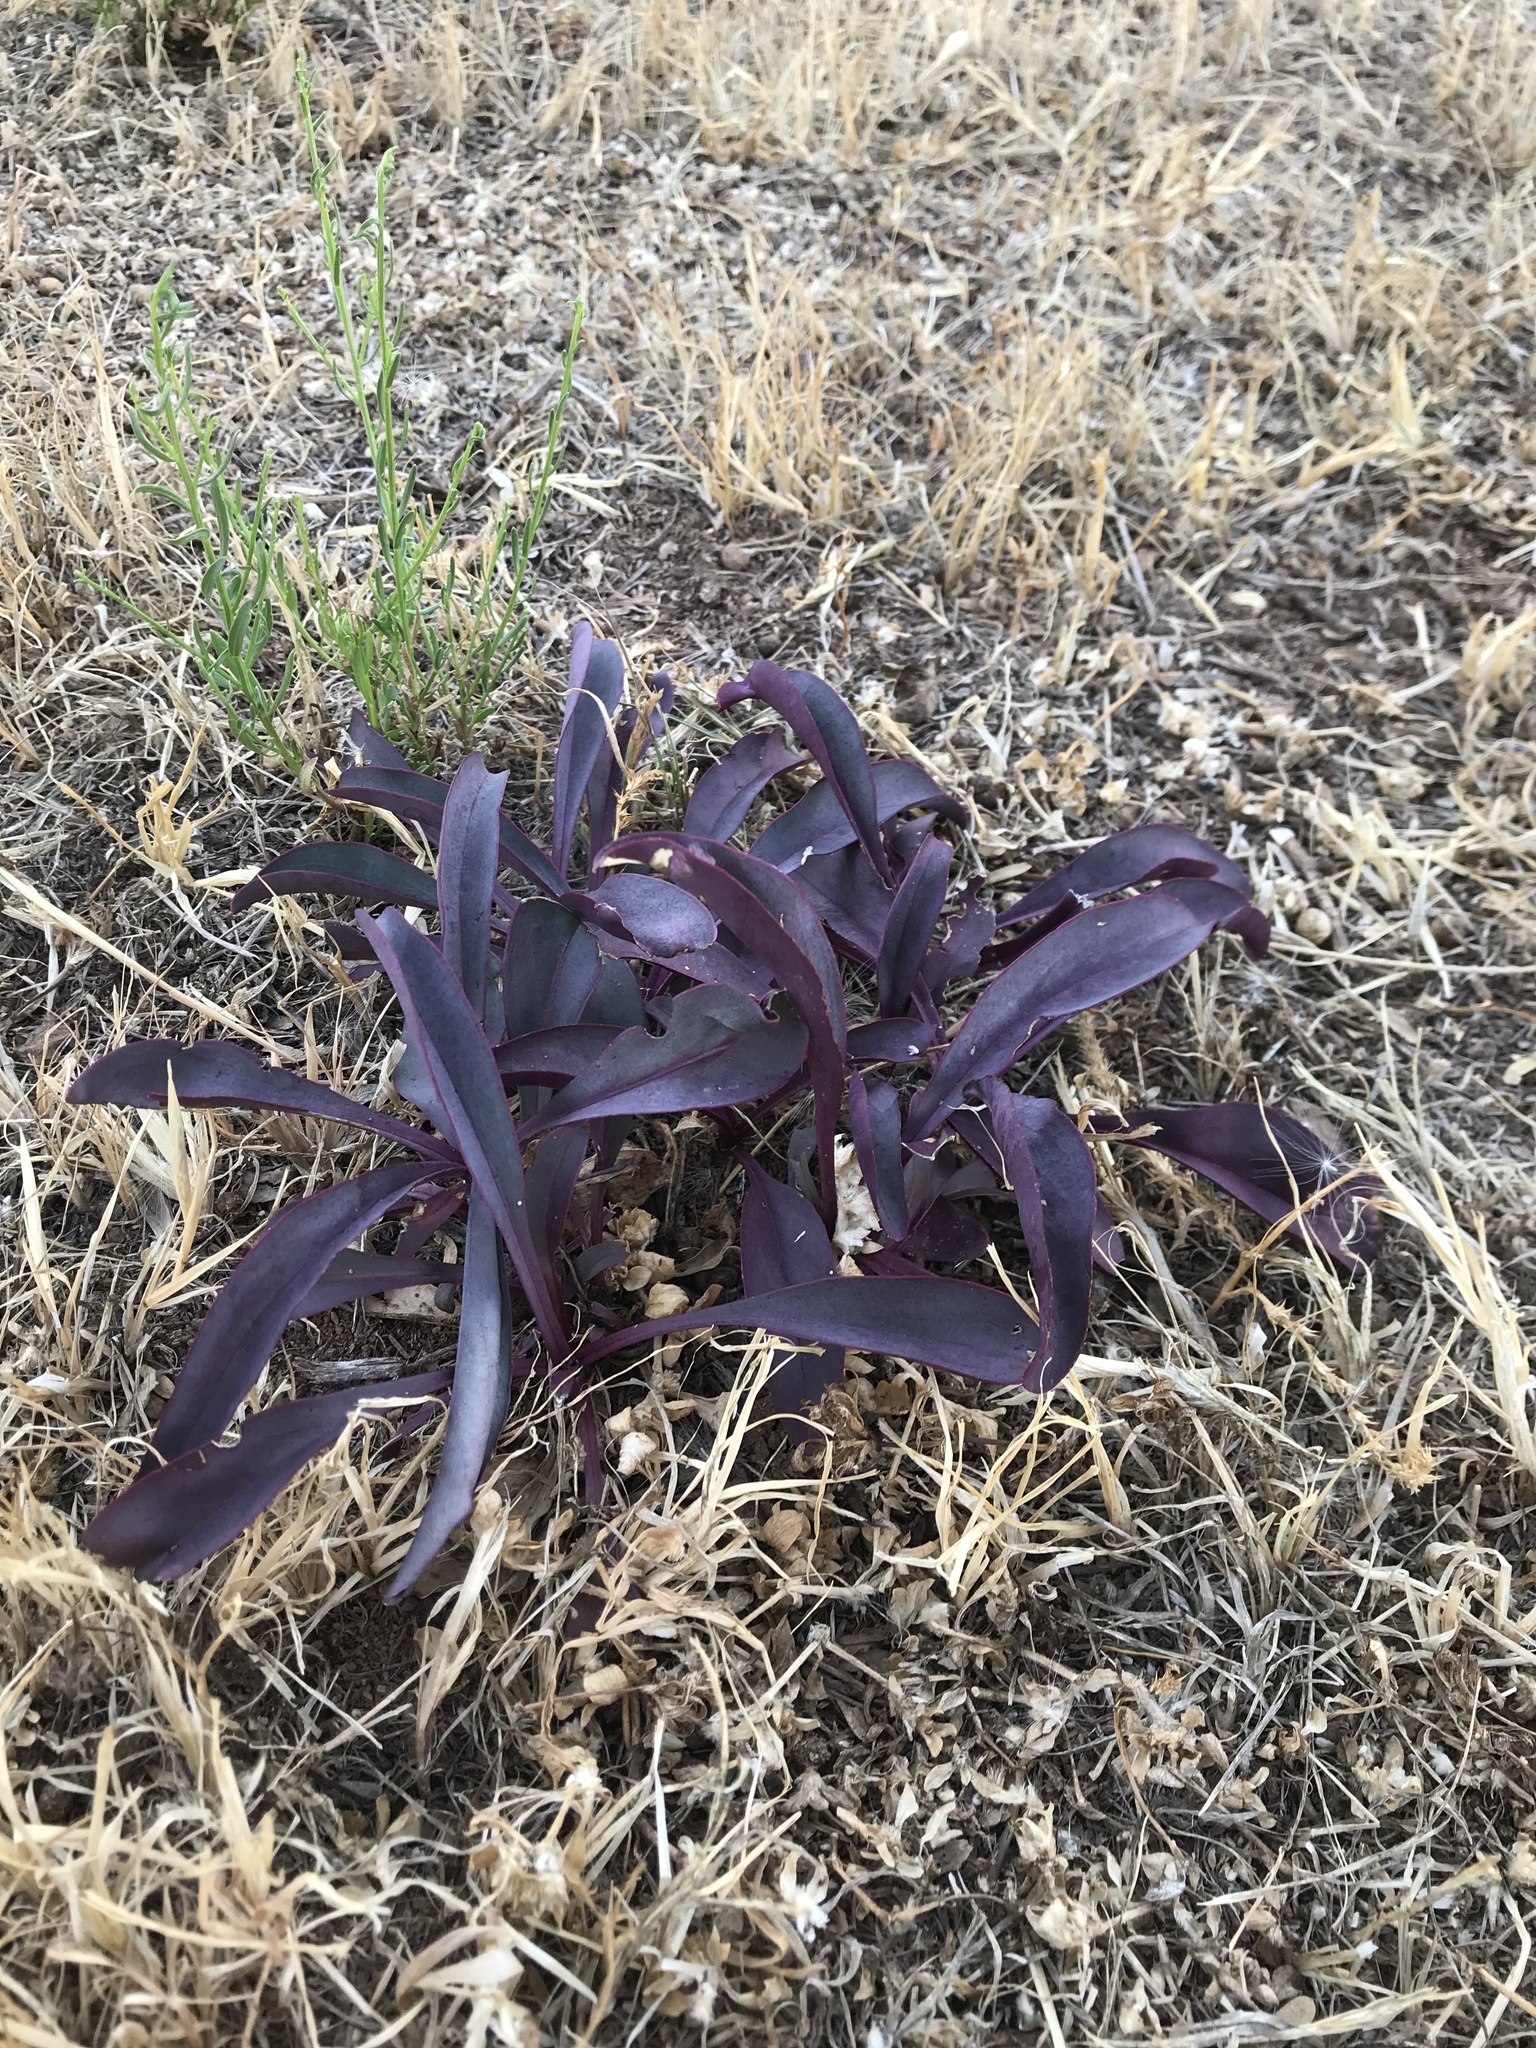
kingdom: Plantae
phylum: Tracheophyta
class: Liliopsida
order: Commelinales
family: Commelinaceae
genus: Tradescantia
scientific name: Tradescantia pallida
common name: Purpleheart
